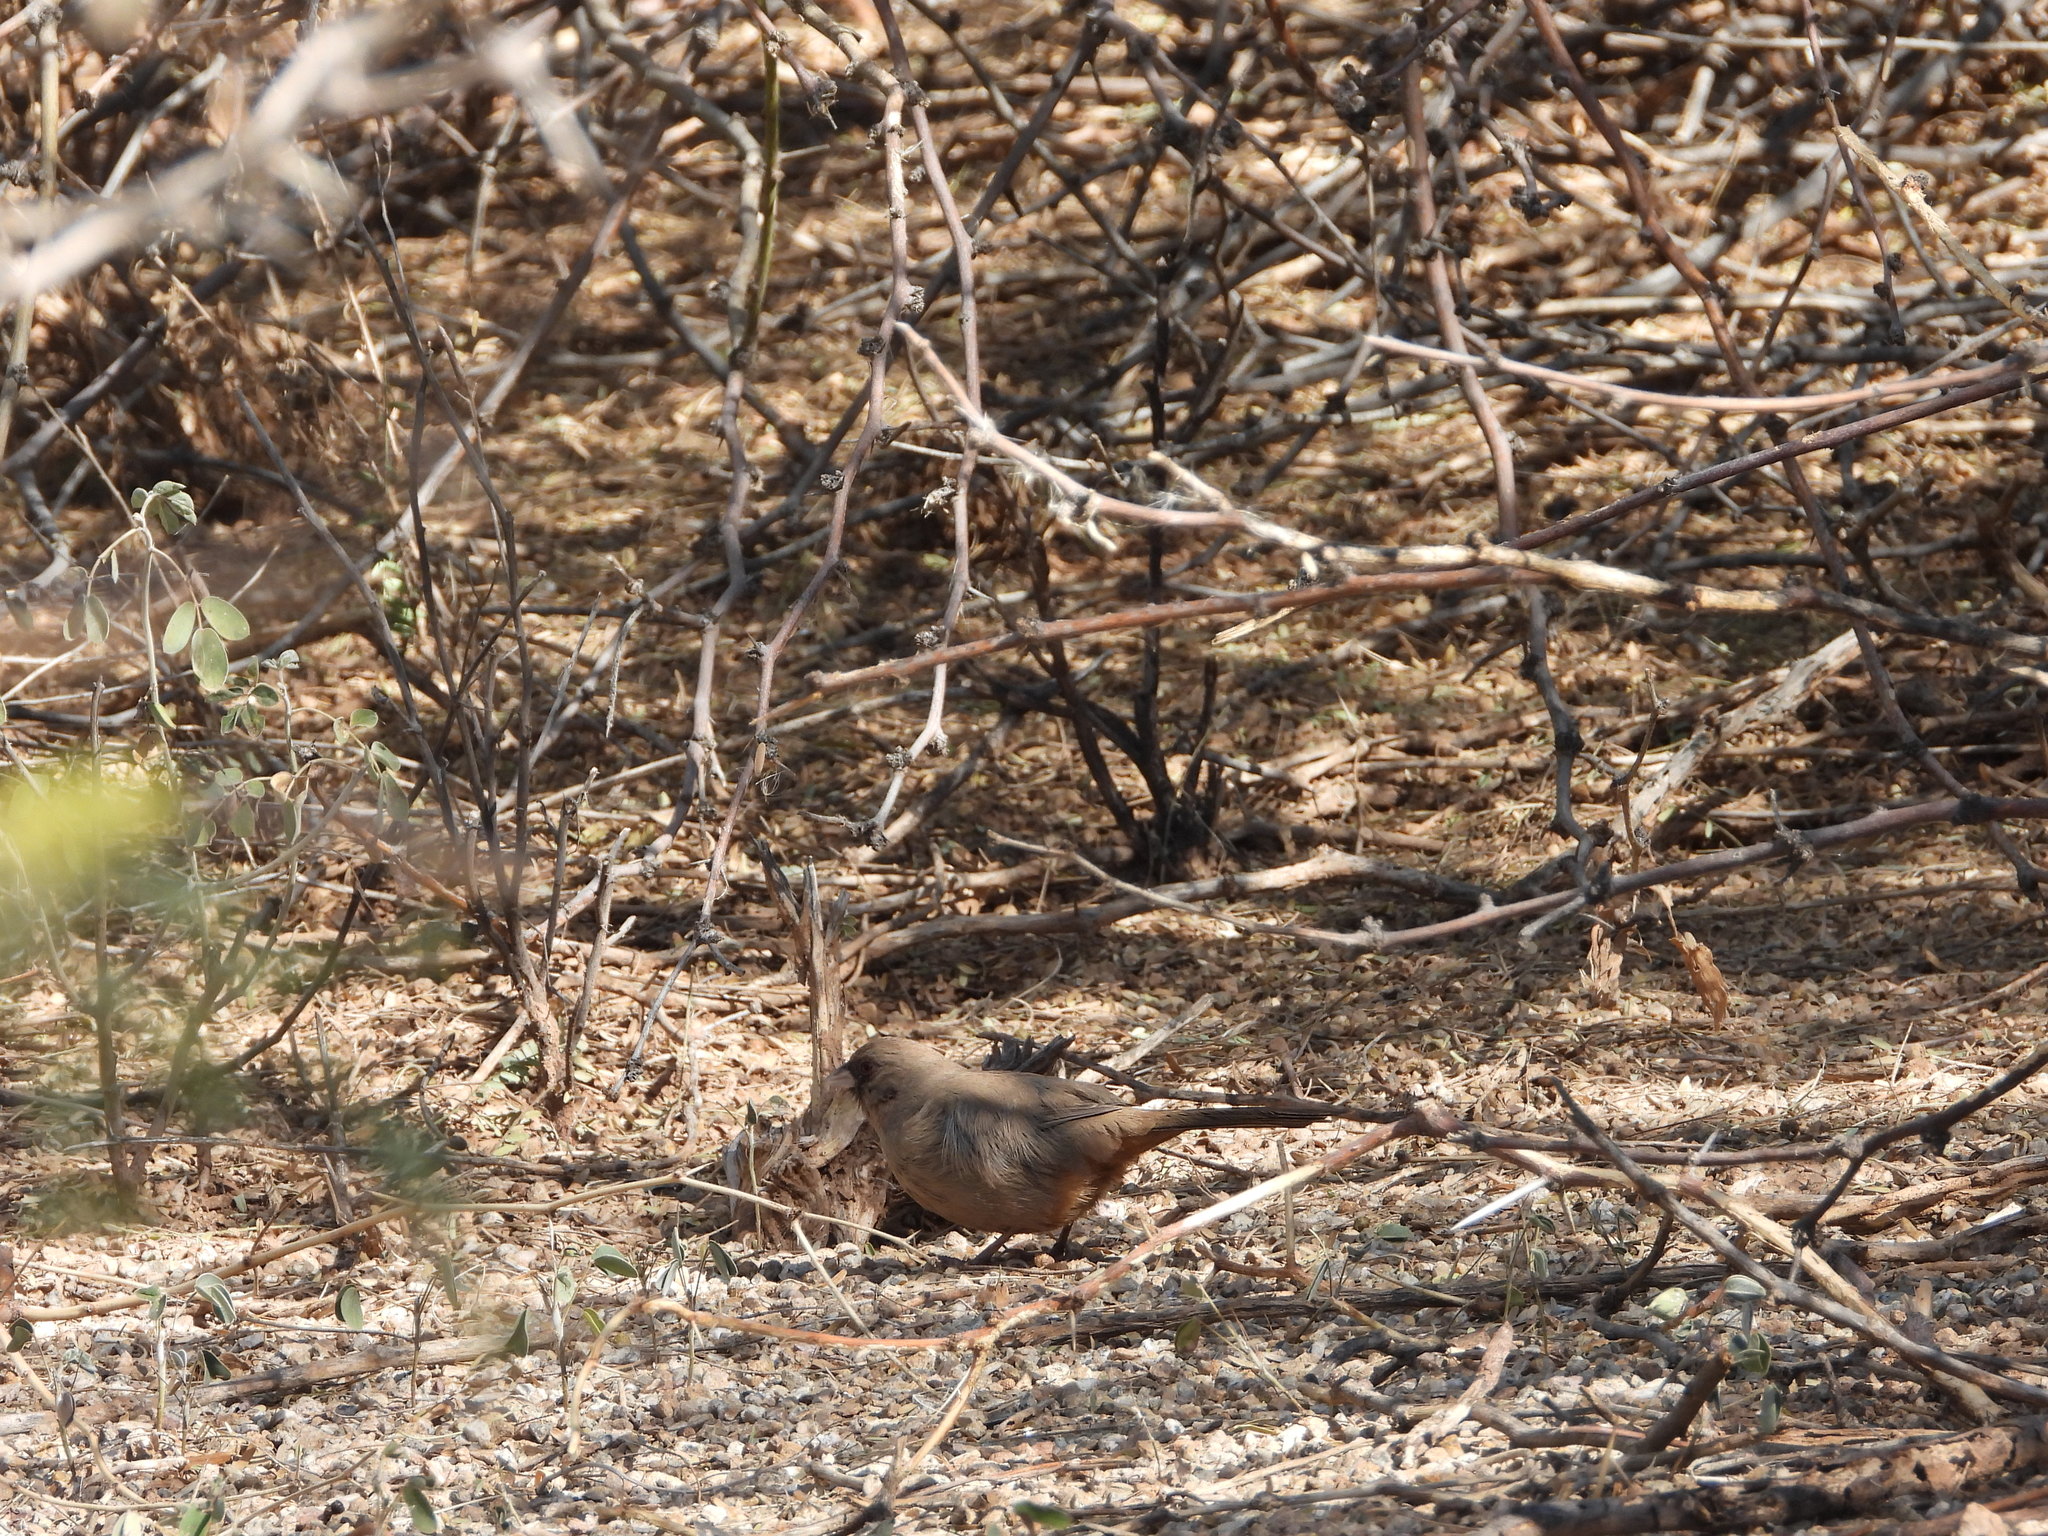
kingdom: Animalia
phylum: Chordata
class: Aves
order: Passeriformes
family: Passerellidae
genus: Melozone
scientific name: Melozone aberti
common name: Abert's towhee
